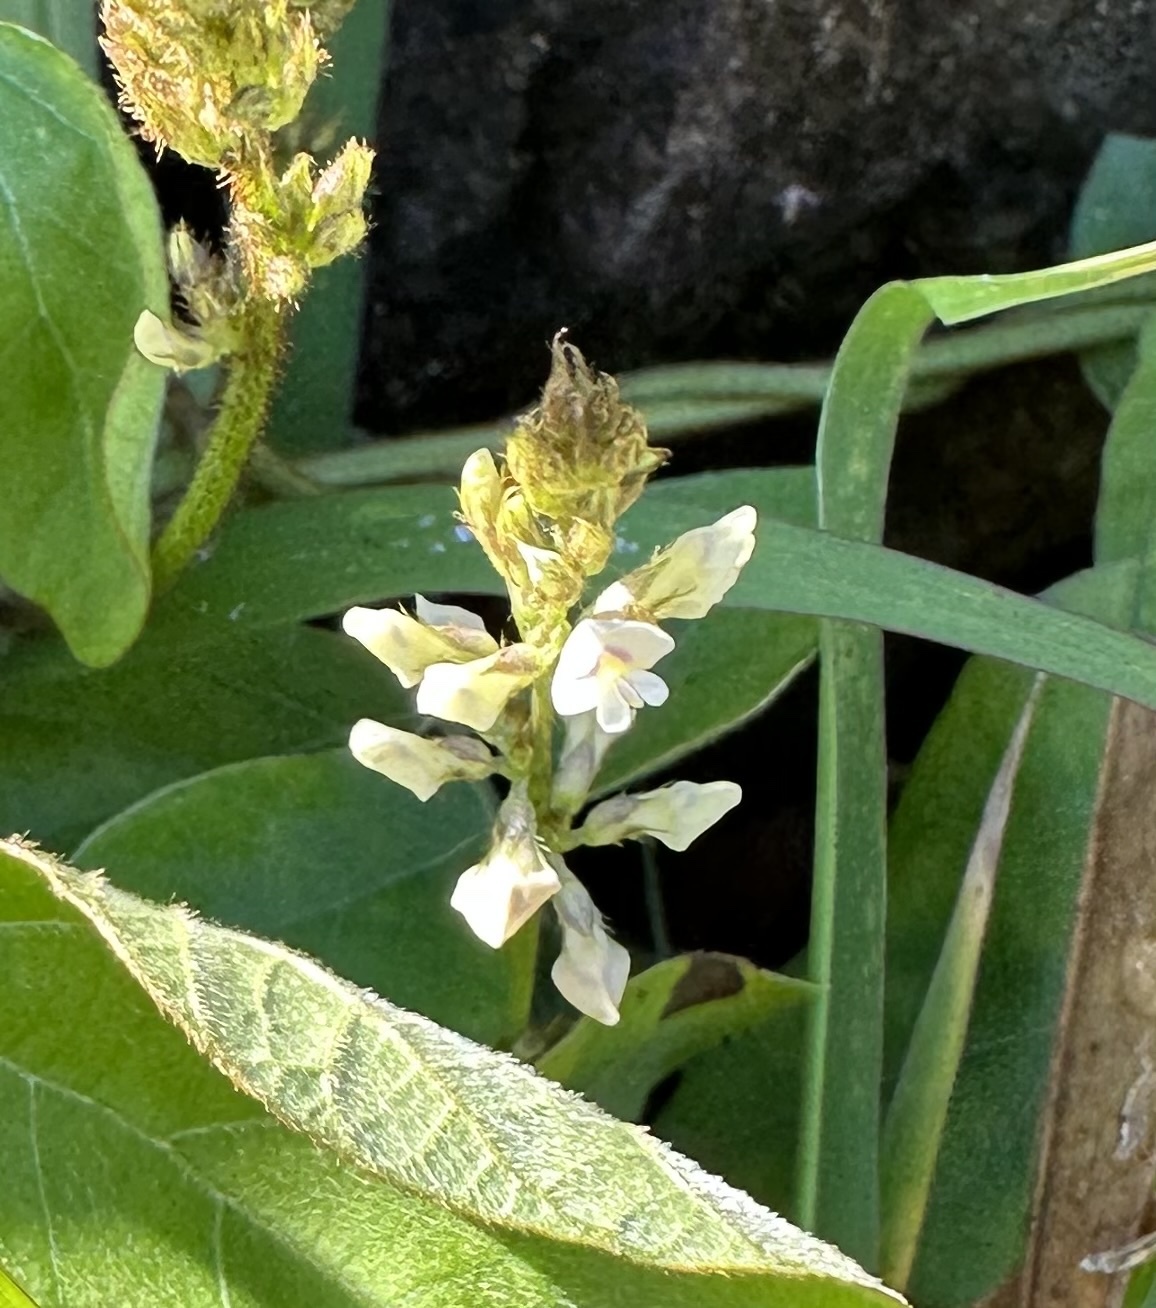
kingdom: Plantae
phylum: Tracheophyta
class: Magnoliopsida
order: Fabales
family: Fabaceae
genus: Neonotonia
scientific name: Neonotonia wightii
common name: Perennial soybean
